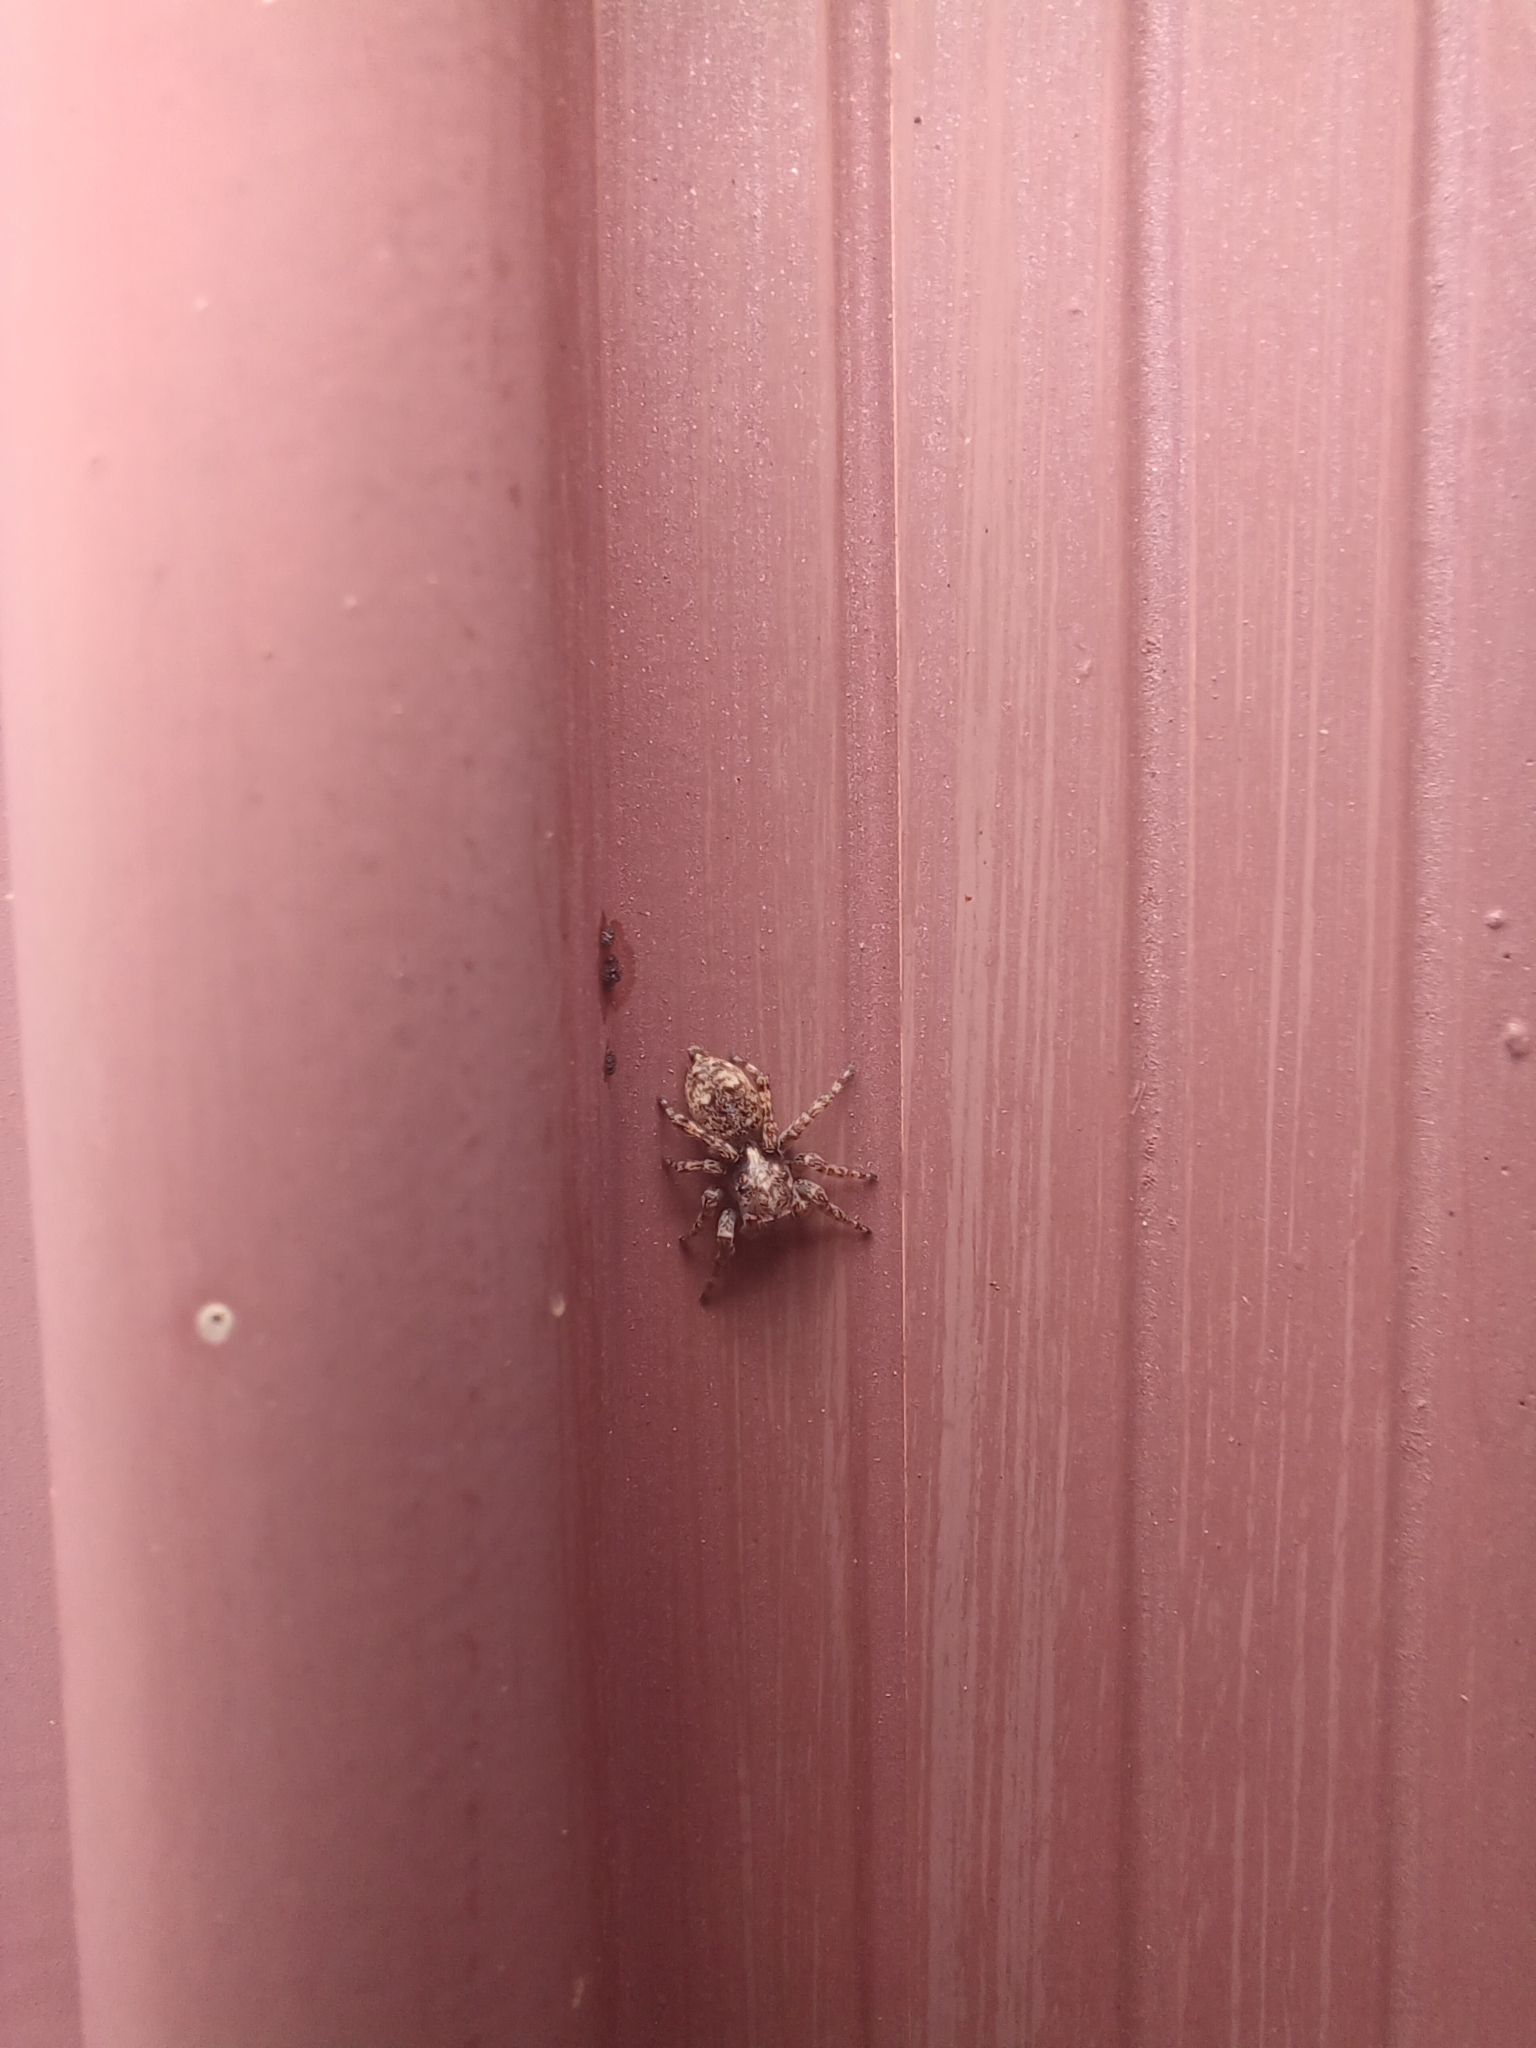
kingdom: Animalia
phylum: Arthropoda
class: Arachnida
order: Araneae
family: Salticidae
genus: Attulus
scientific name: Attulus fasciger
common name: Asiatic wall jumping spider
